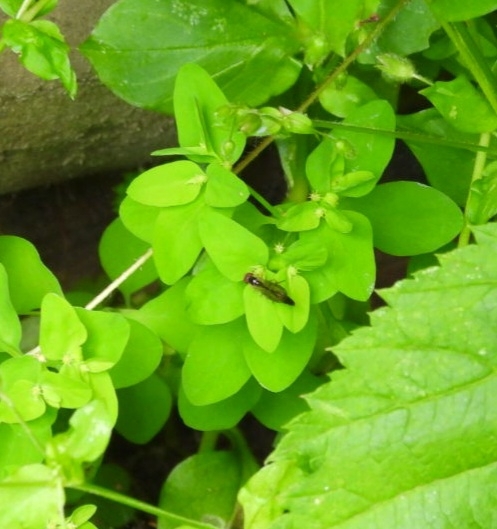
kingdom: Animalia
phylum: Arthropoda
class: Insecta
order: Diptera
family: Syrphidae
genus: Baccha
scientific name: Baccha elongata
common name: Common dainty
